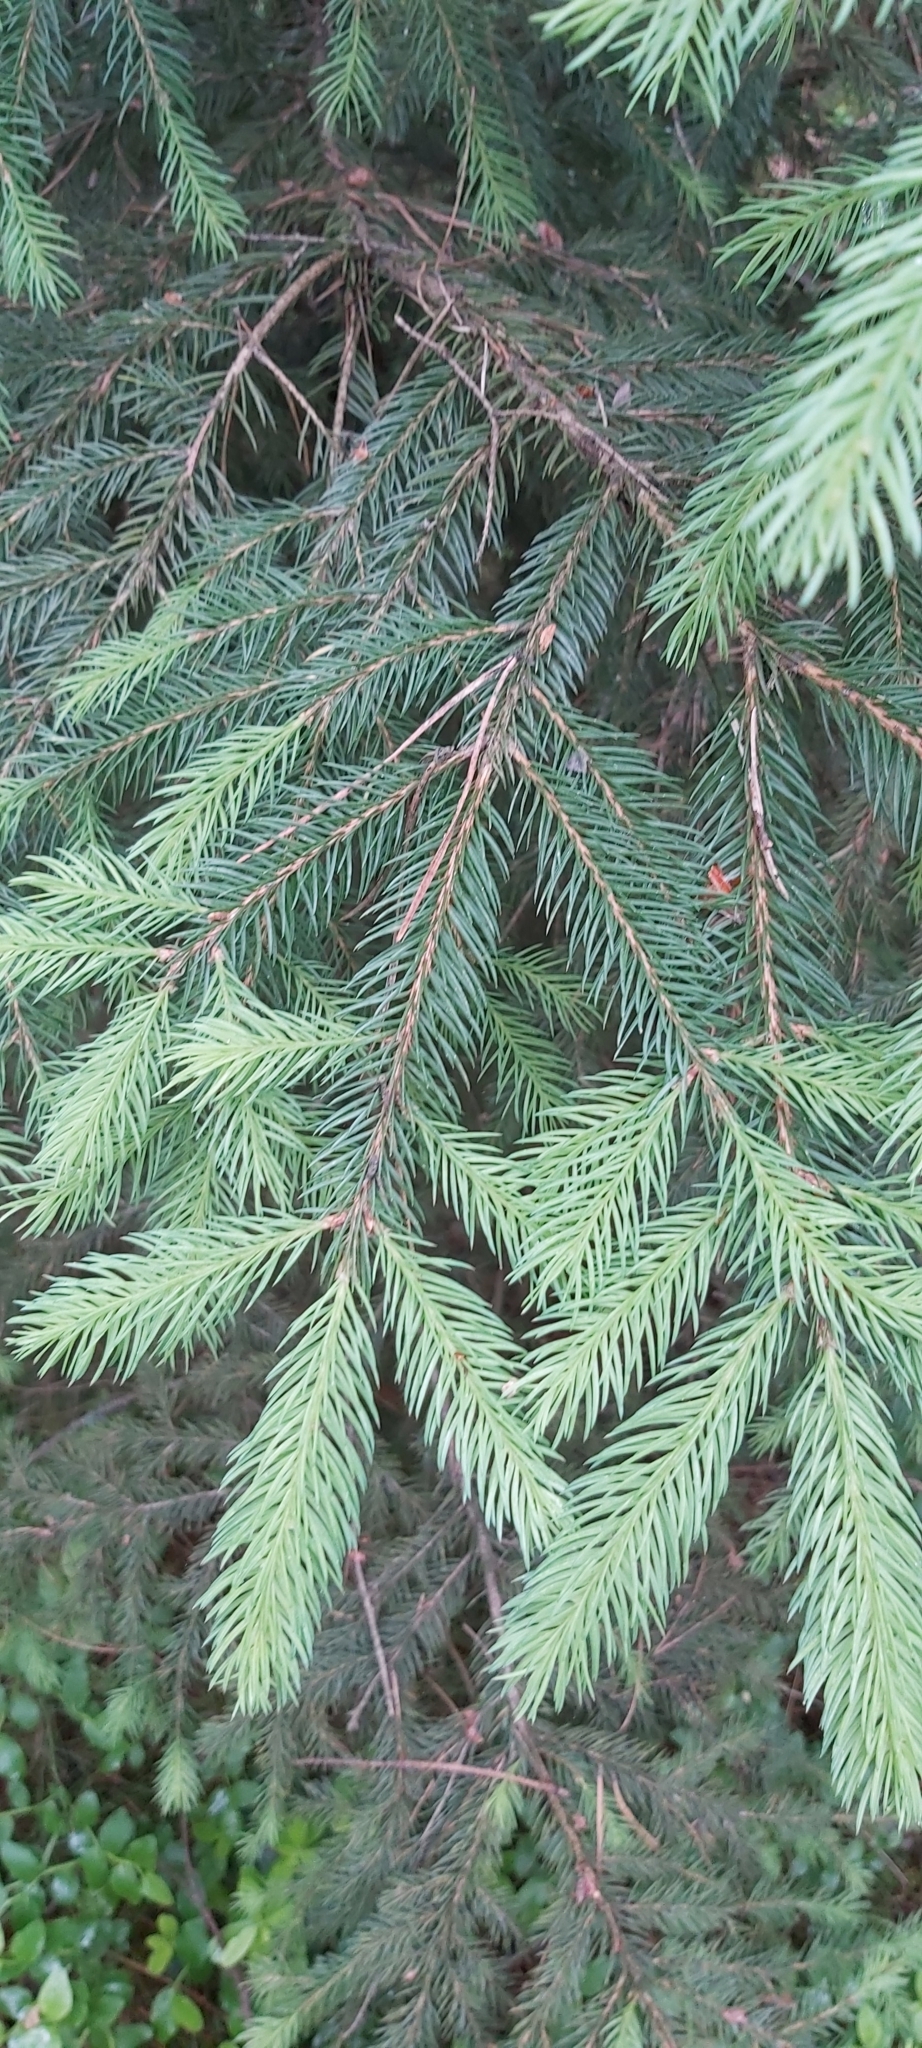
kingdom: Plantae
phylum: Tracheophyta
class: Pinopsida
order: Pinales
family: Pinaceae
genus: Picea
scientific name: Picea abies
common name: Norway spruce
